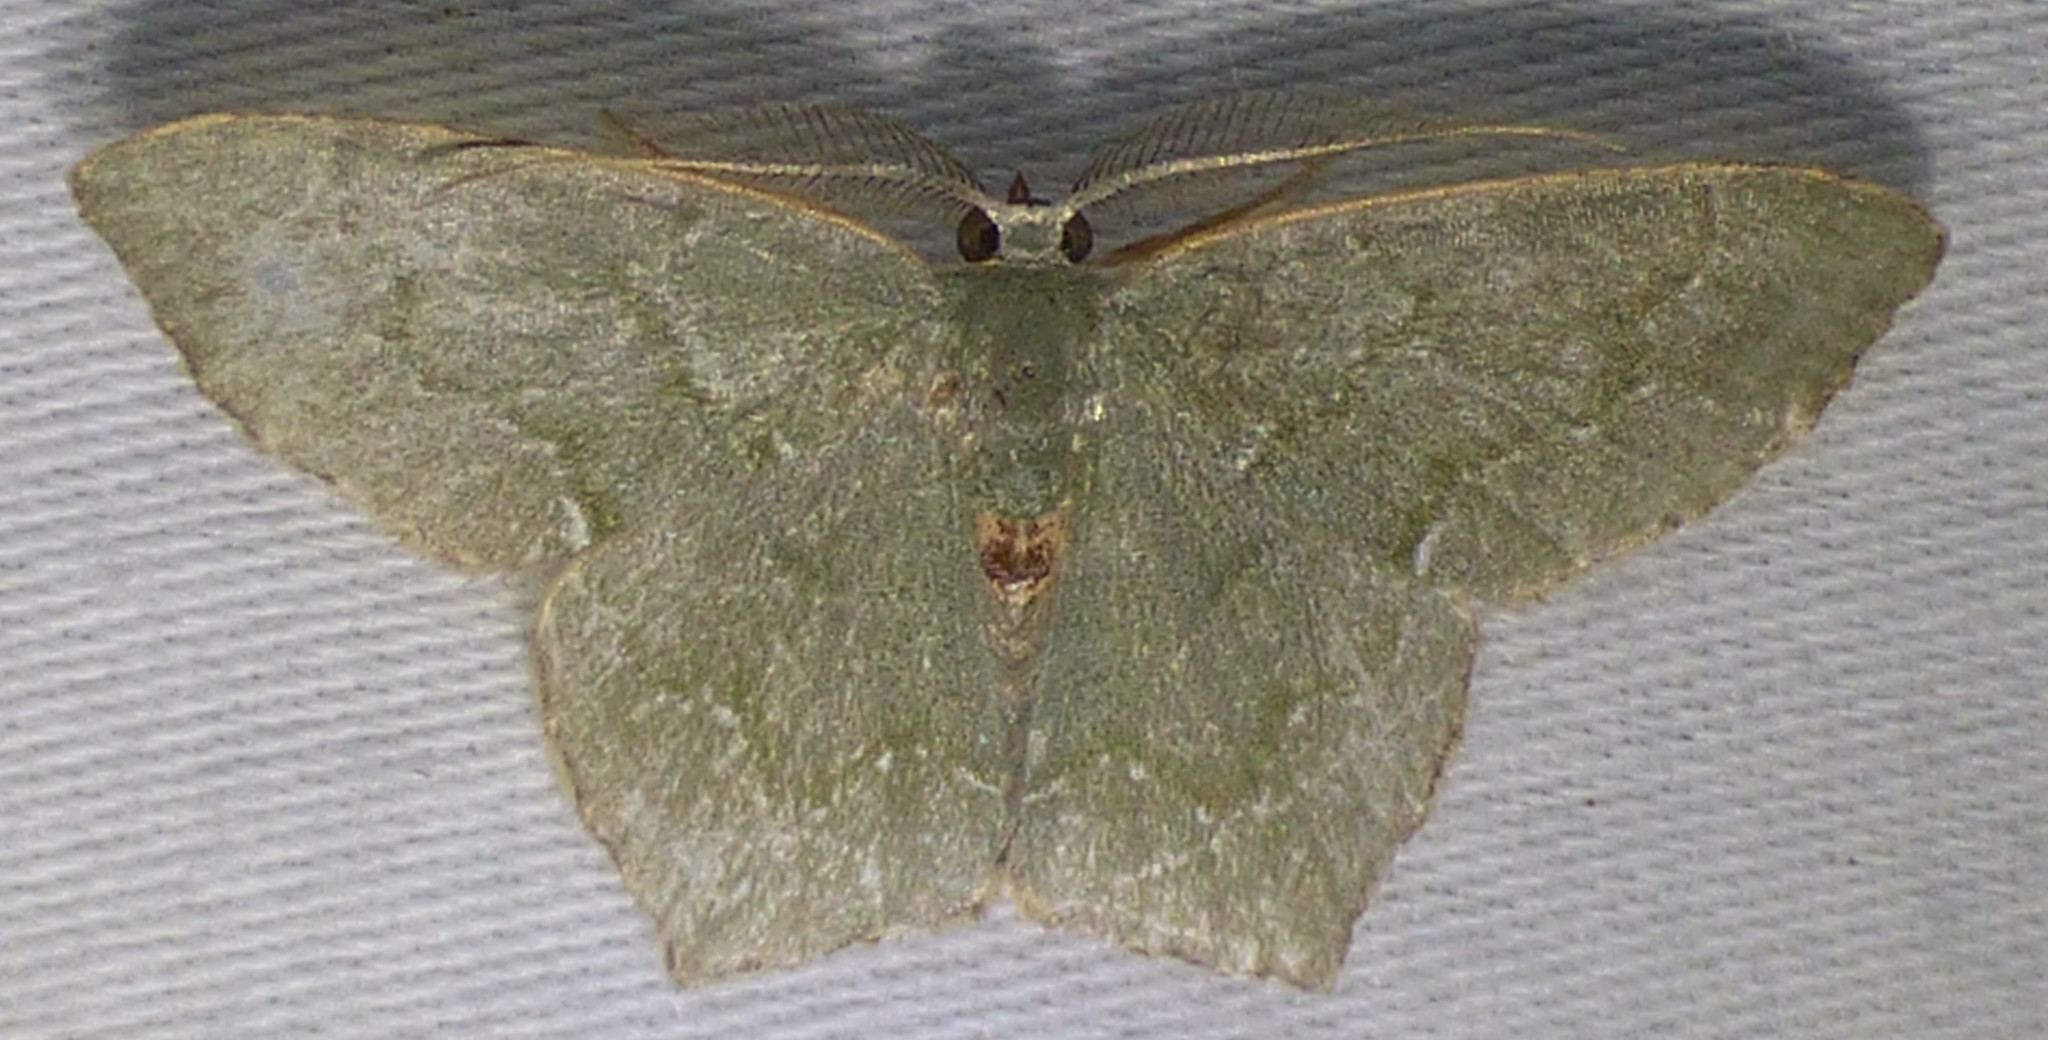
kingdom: Animalia
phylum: Arthropoda
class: Insecta
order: Lepidoptera
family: Geometridae
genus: Chloropteryx
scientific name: Chloropteryx tepperaria
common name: Angle winged emerald moth
